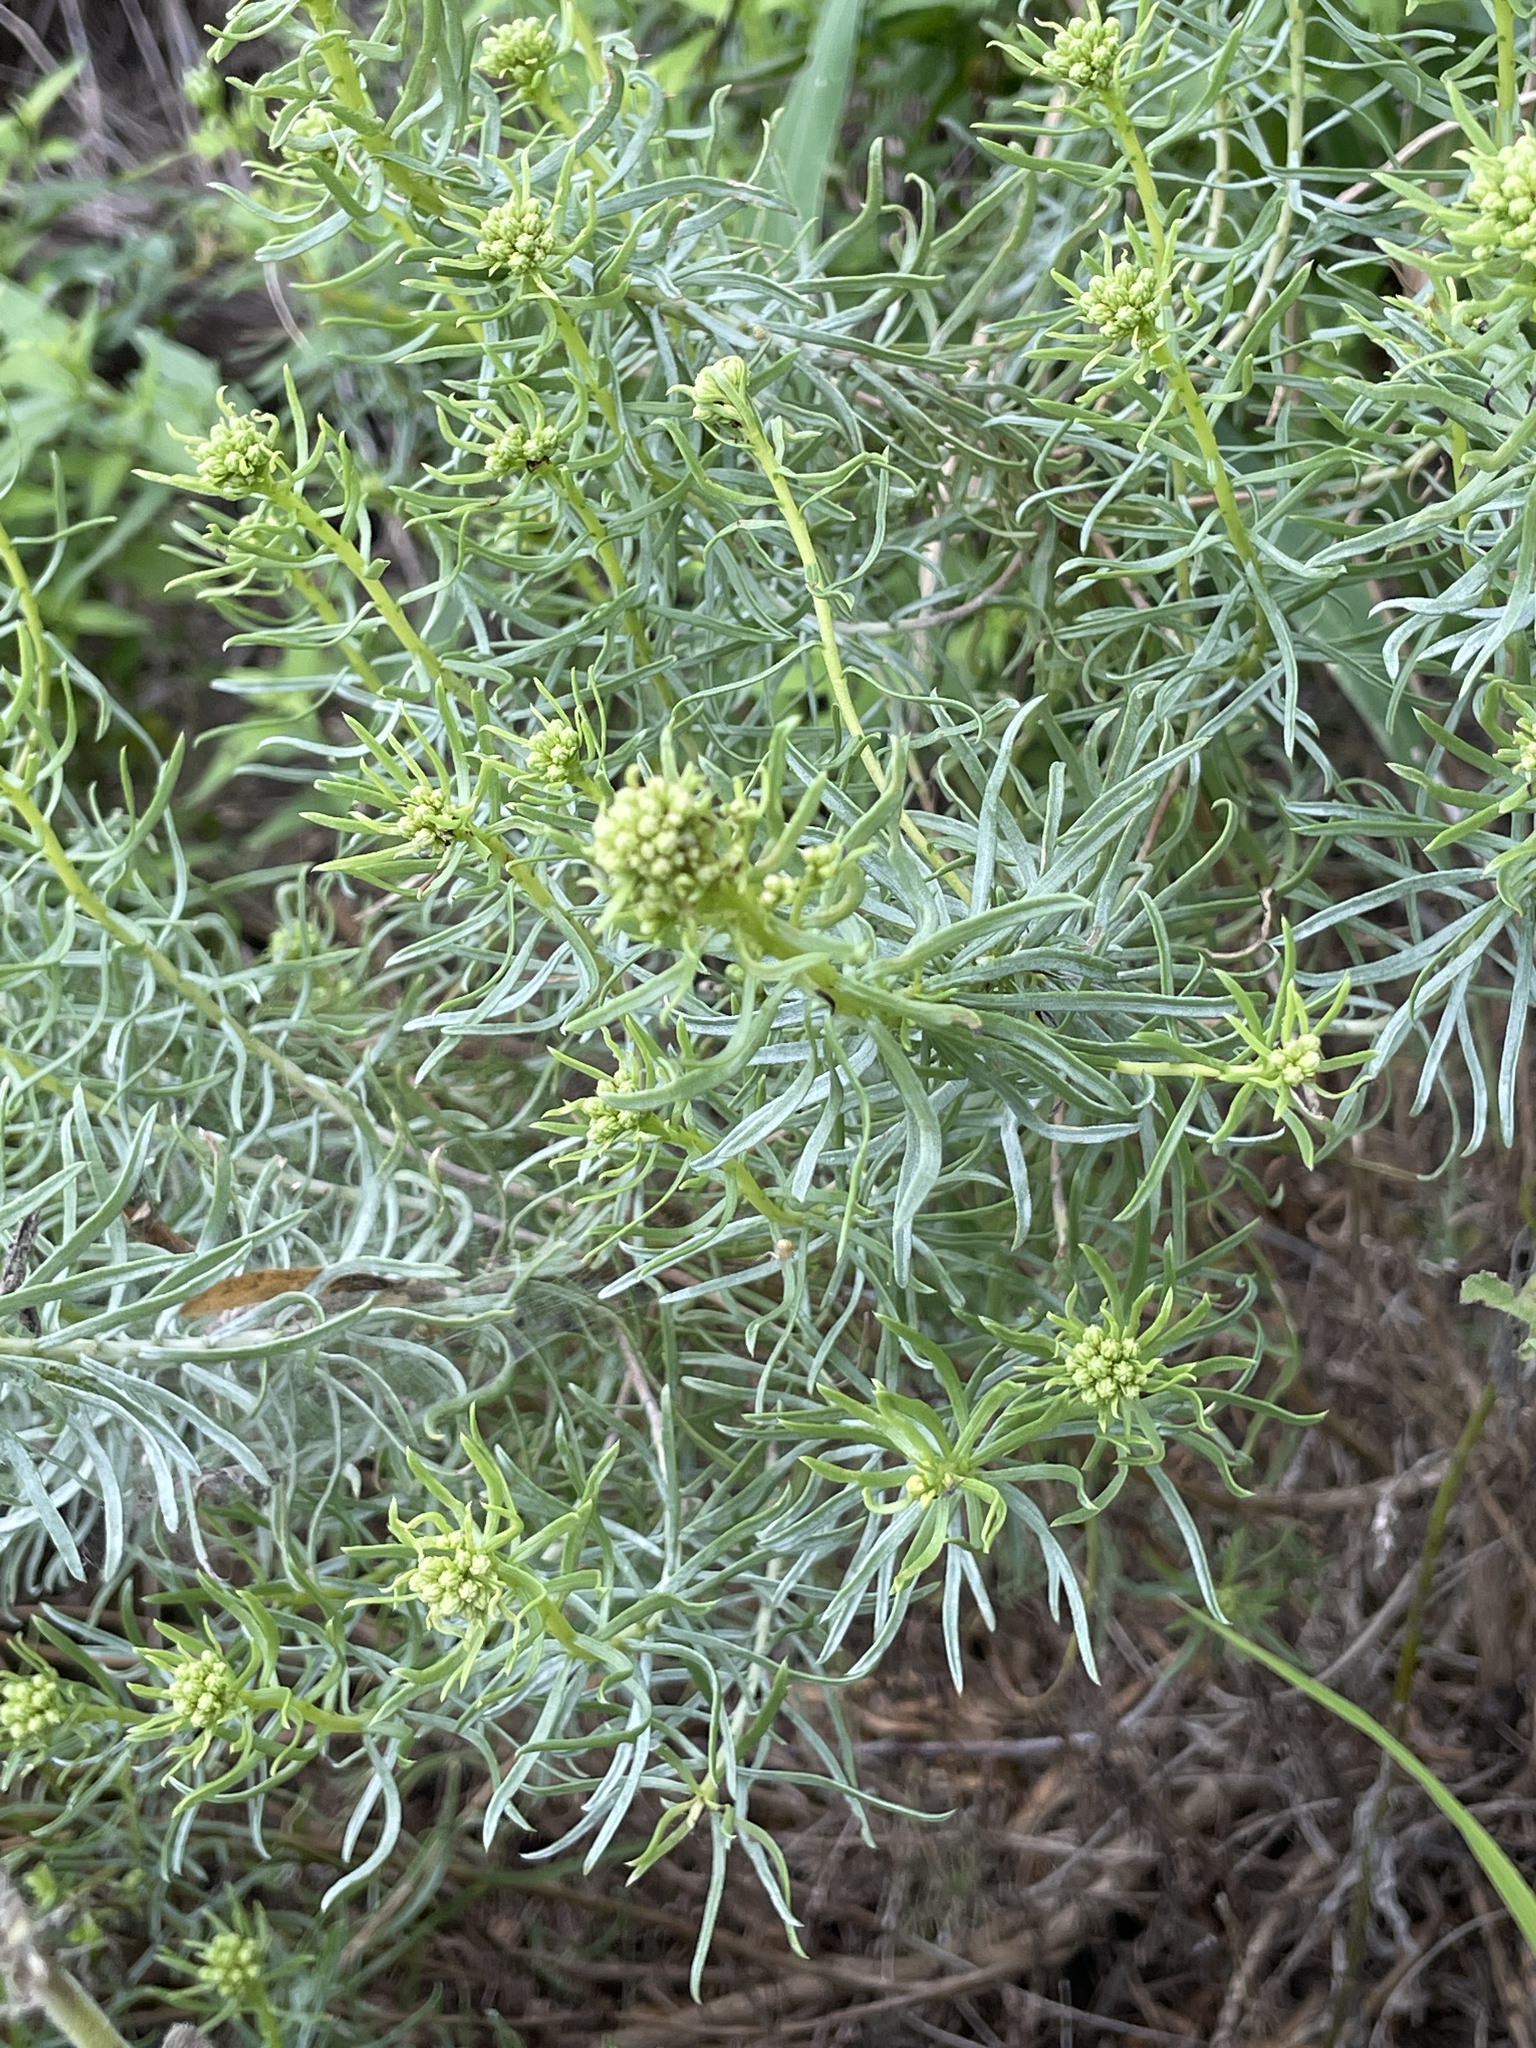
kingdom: Plantae
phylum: Tracheophyta
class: Magnoliopsida
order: Asterales
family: Asteraceae
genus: Isocoma
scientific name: Isocoma drummondii
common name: Drummond's jimmyweed
